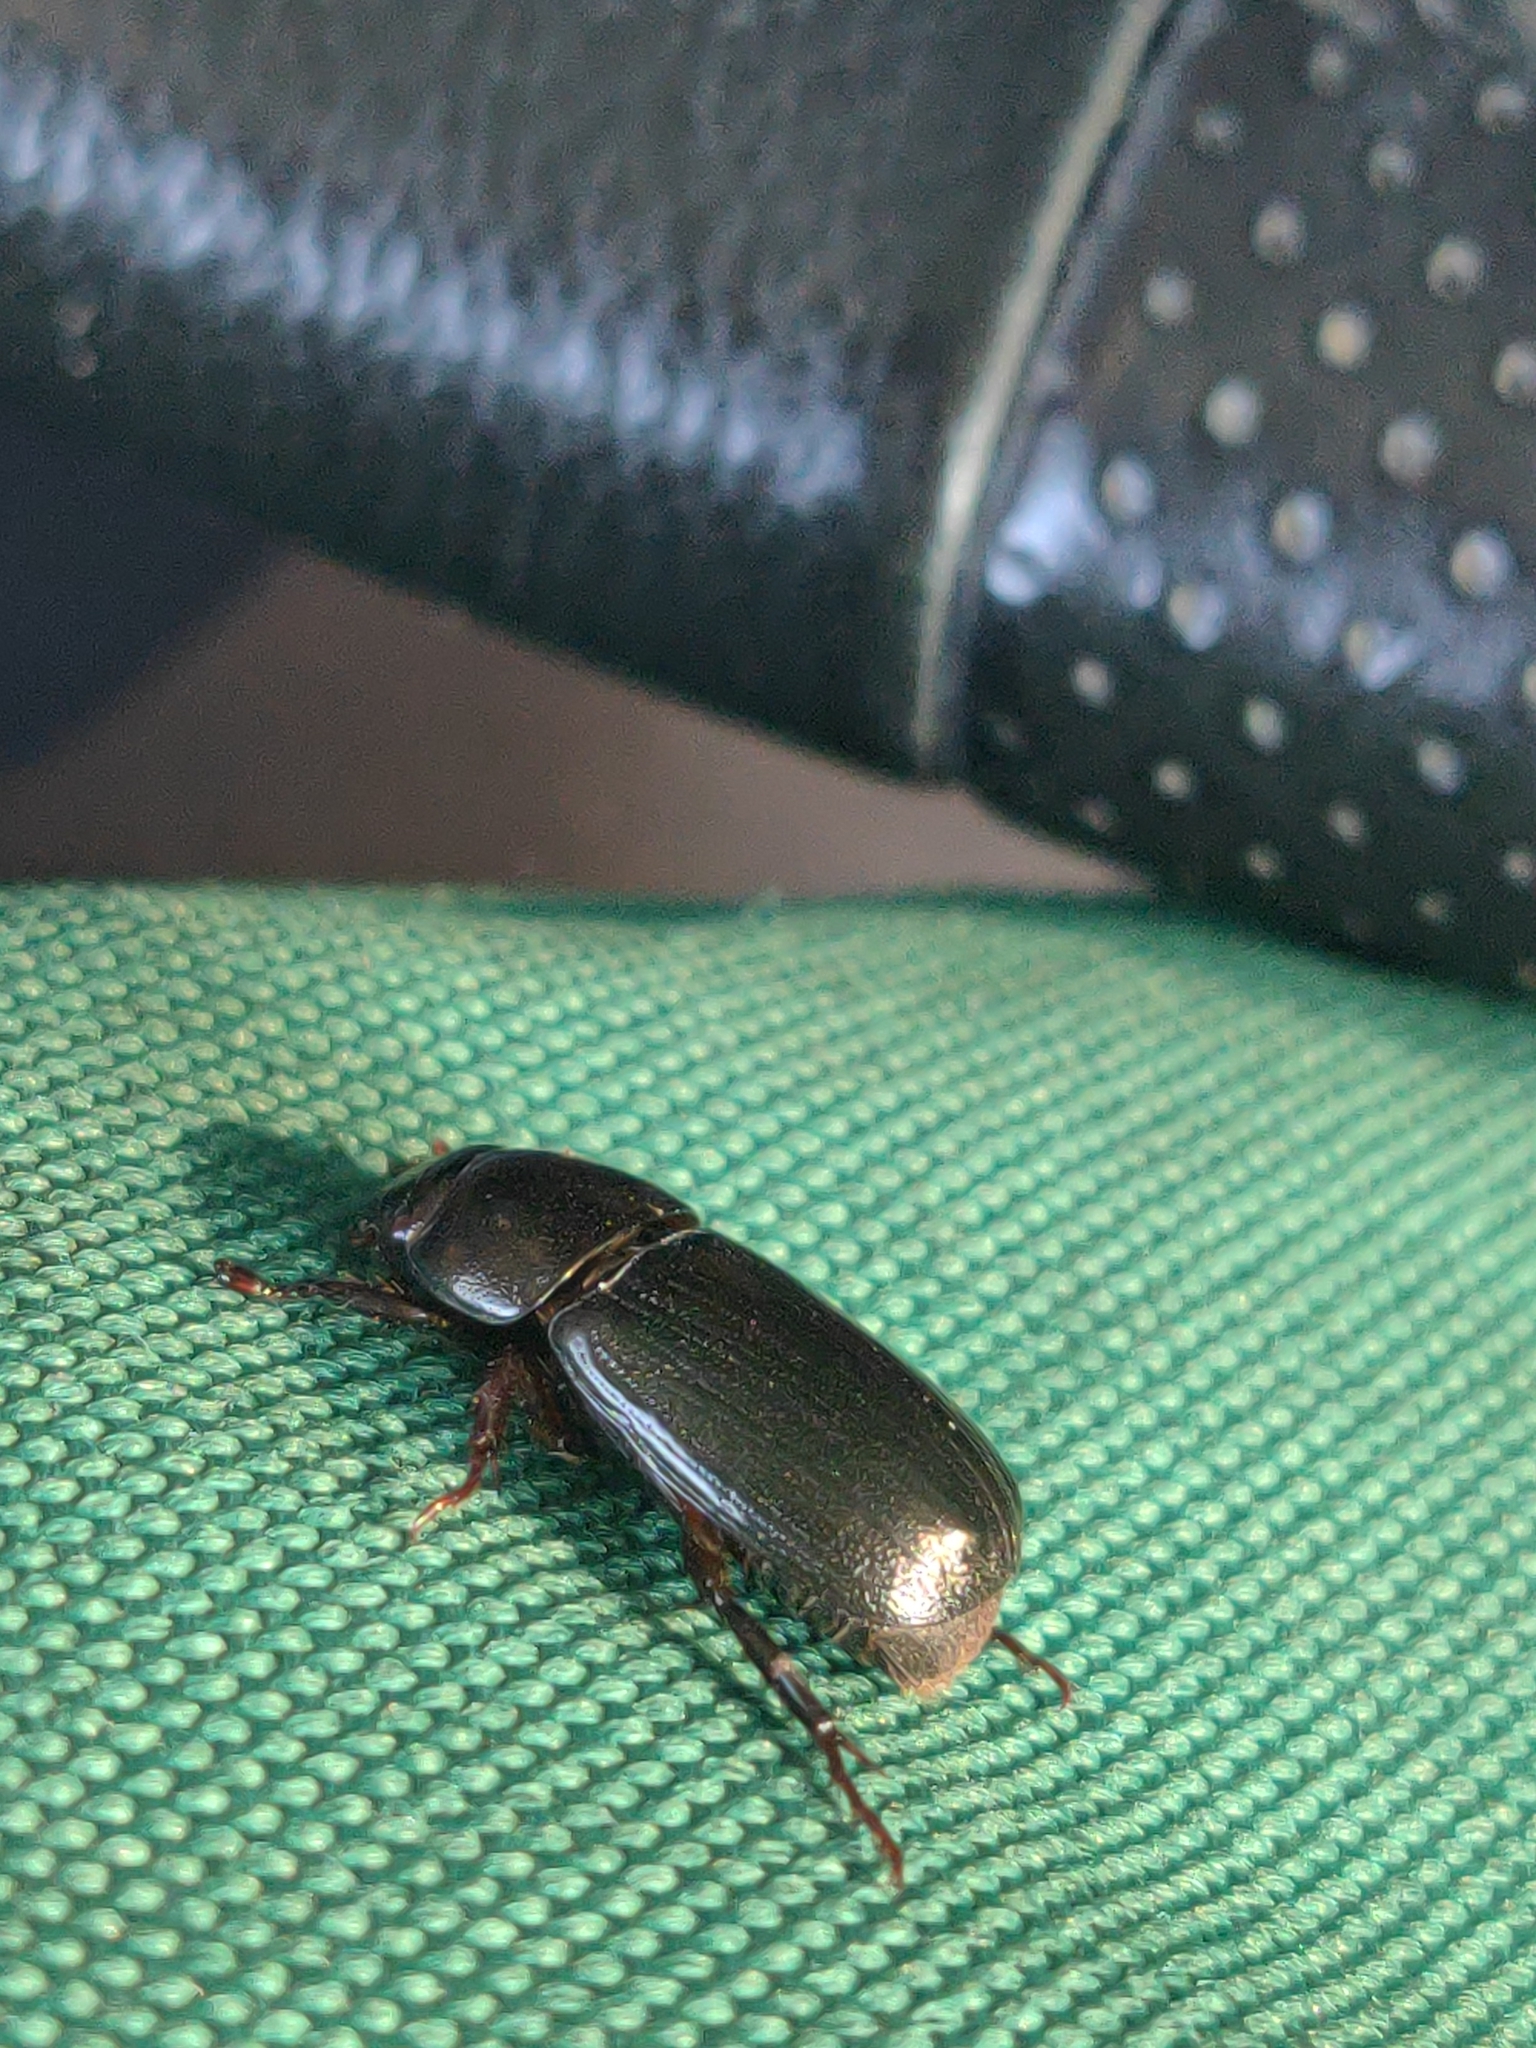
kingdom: Animalia
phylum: Arthropoda
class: Insecta
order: Coleoptera
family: Scarabaeidae
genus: Dyscinetus
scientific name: Dyscinetus morator
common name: Rice beetle
